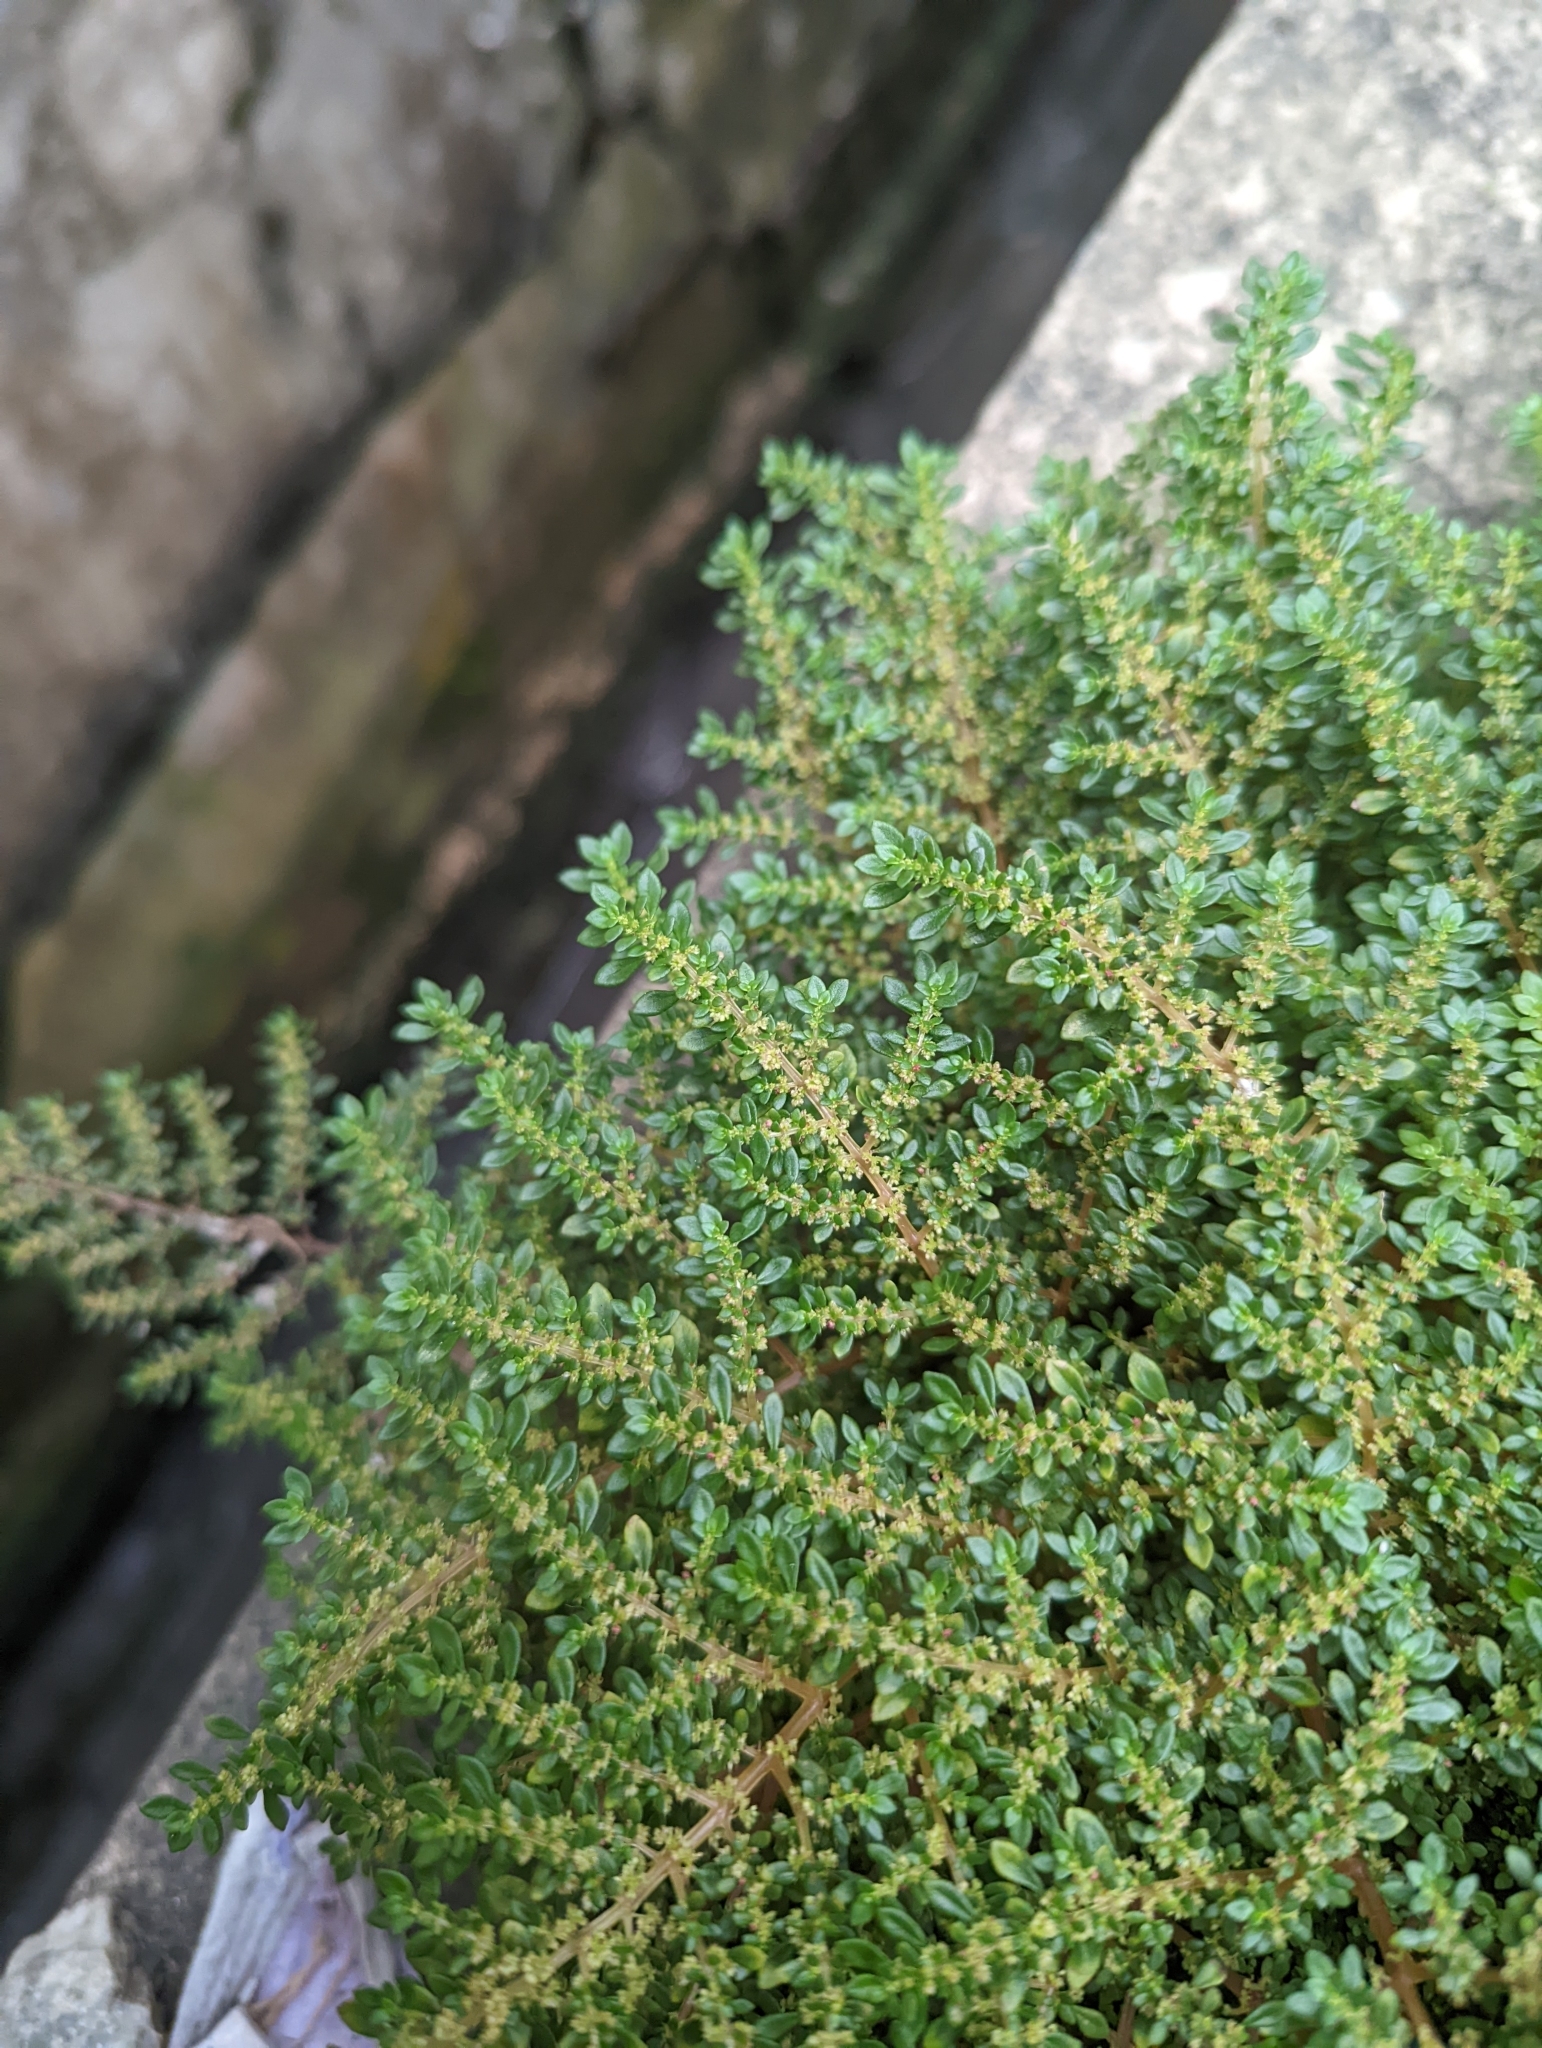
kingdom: Plantae
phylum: Tracheophyta
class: Magnoliopsida
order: Rosales
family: Urticaceae
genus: Pilea
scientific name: Pilea microphylla
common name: Artillery-plant
